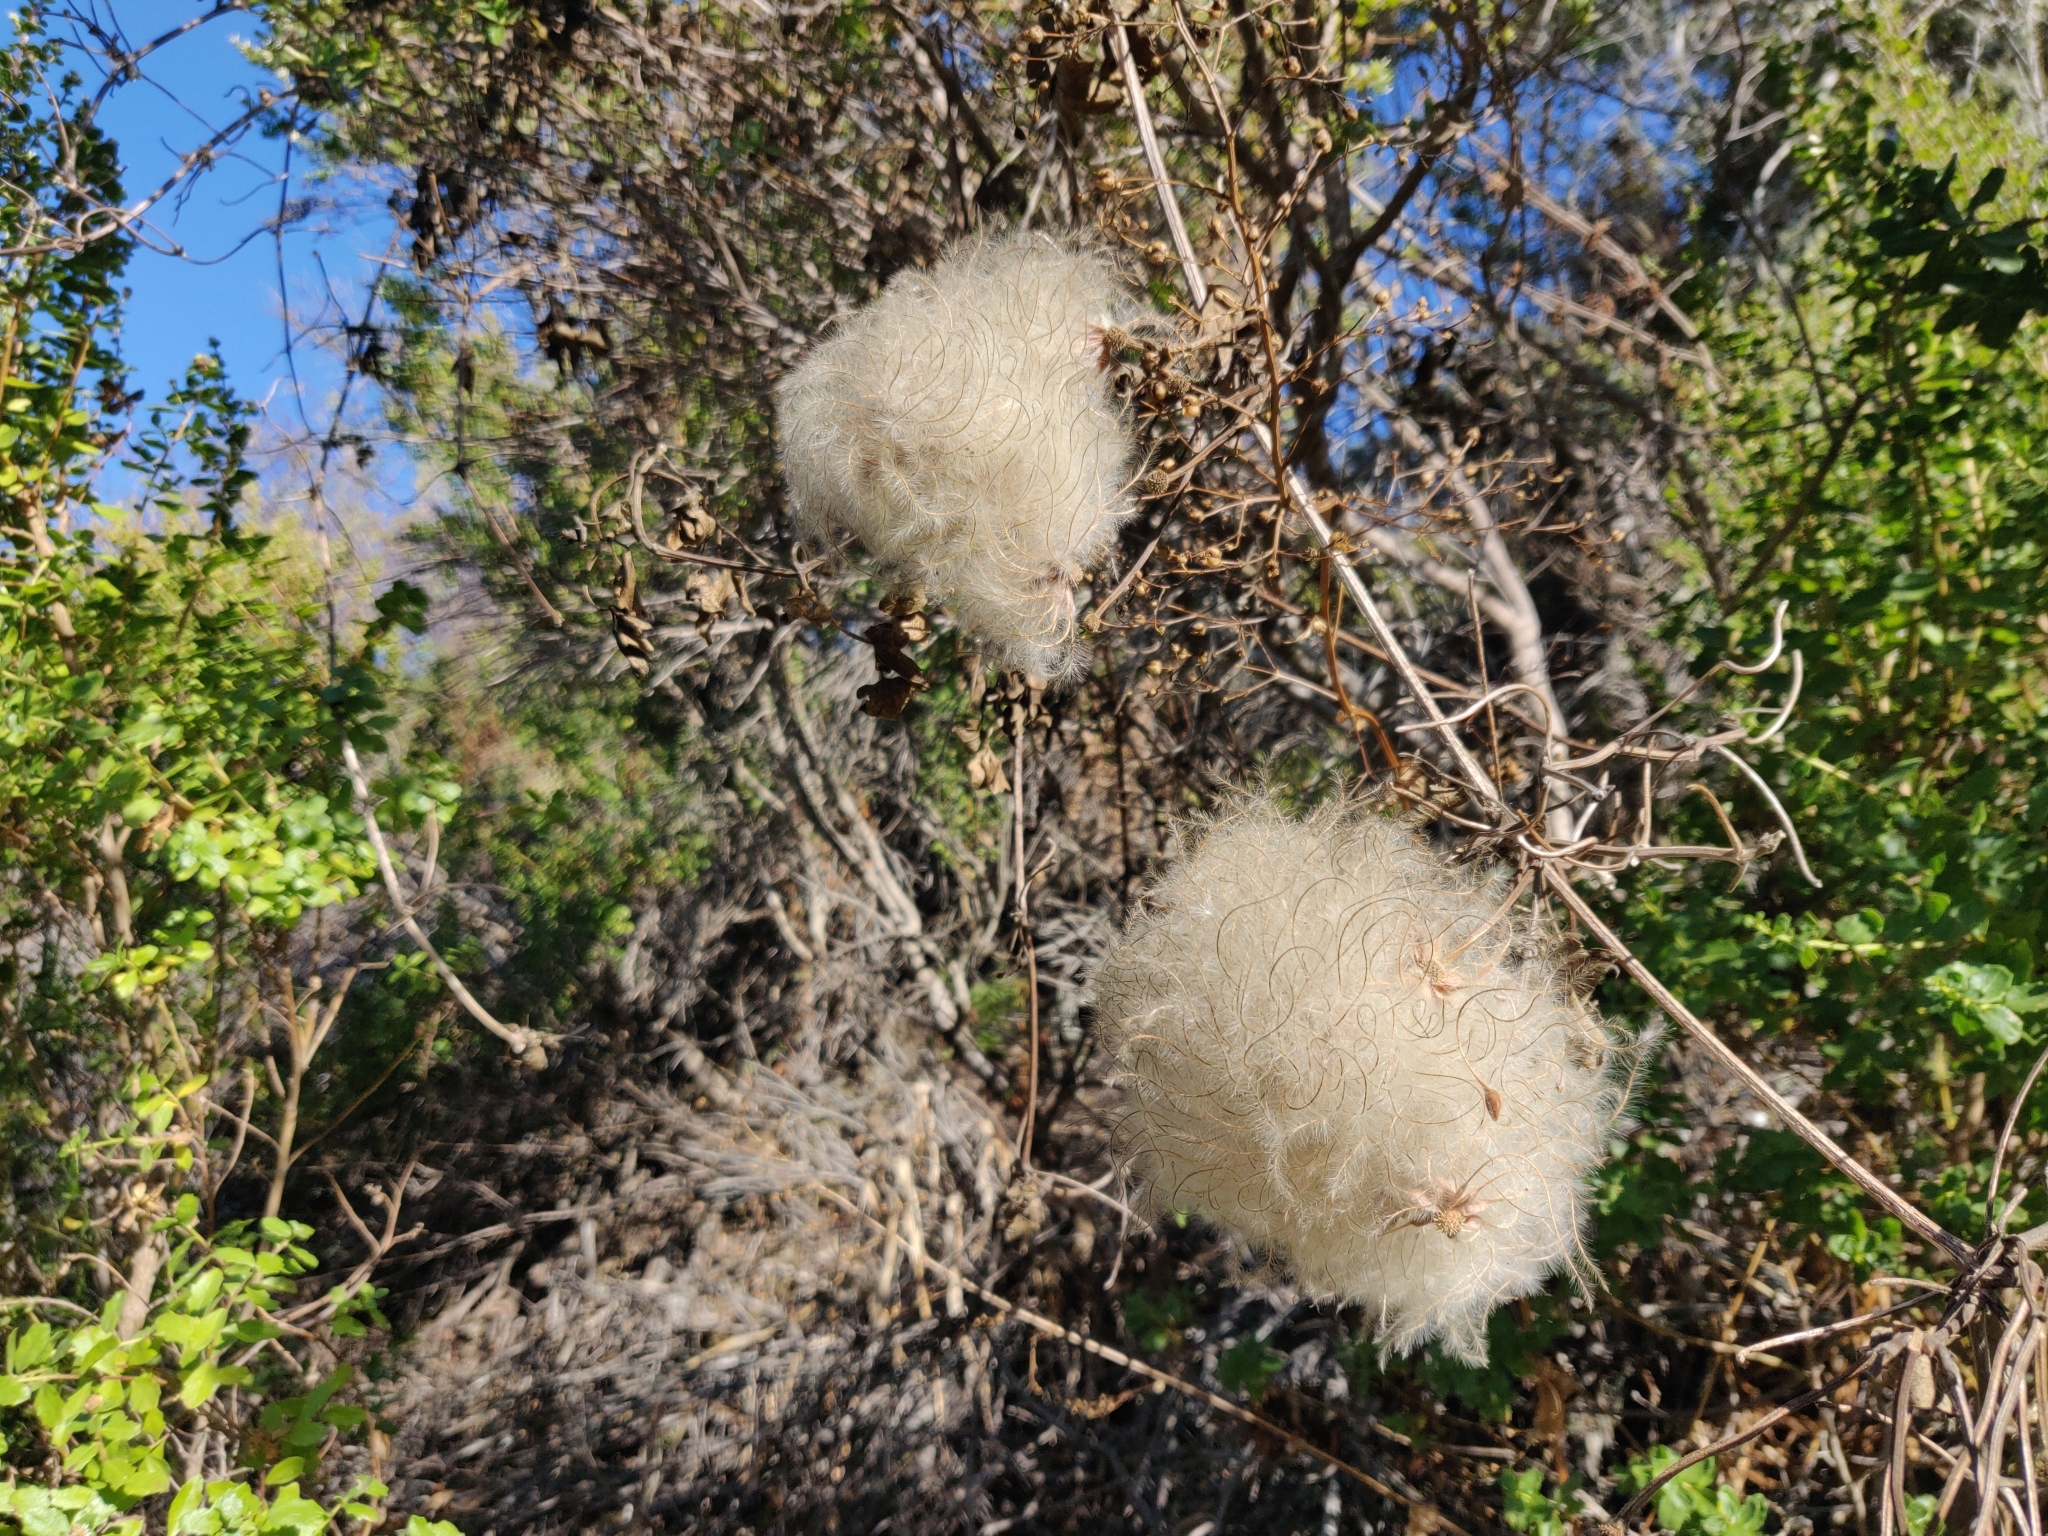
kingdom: Plantae
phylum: Tracheophyta
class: Magnoliopsida
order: Ranunculales
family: Ranunculaceae
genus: Clematis
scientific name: Clematis lasiantha
